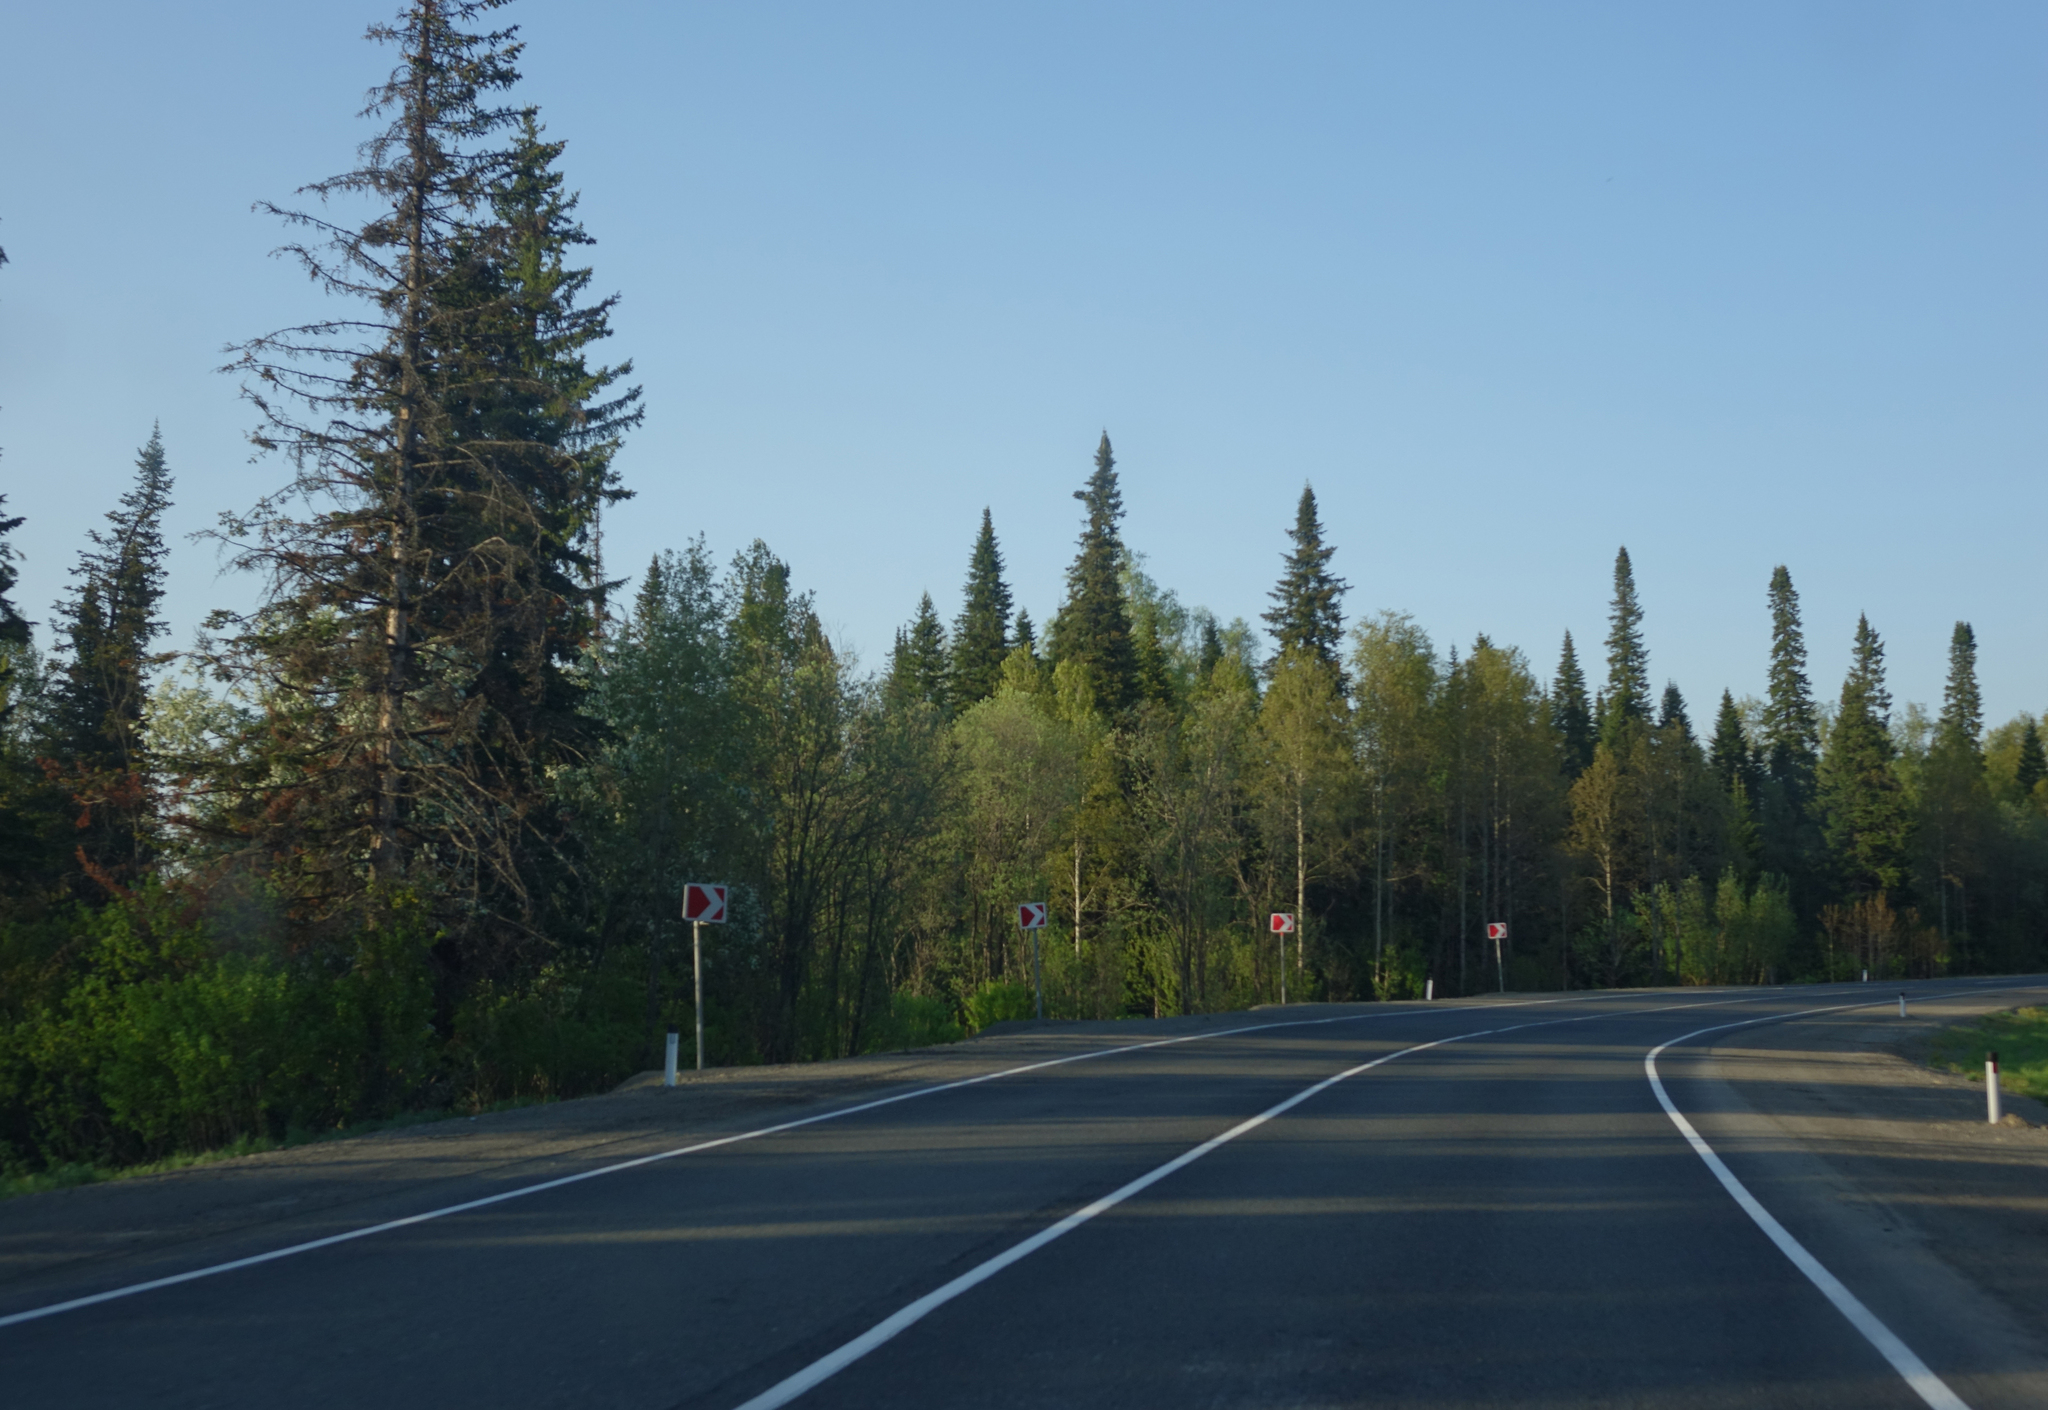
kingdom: Plantae
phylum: Tracheophyta
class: Pinopsida
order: Pinales
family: Pinaceae
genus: Abies
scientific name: Abies sibirica
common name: Siberian fir
